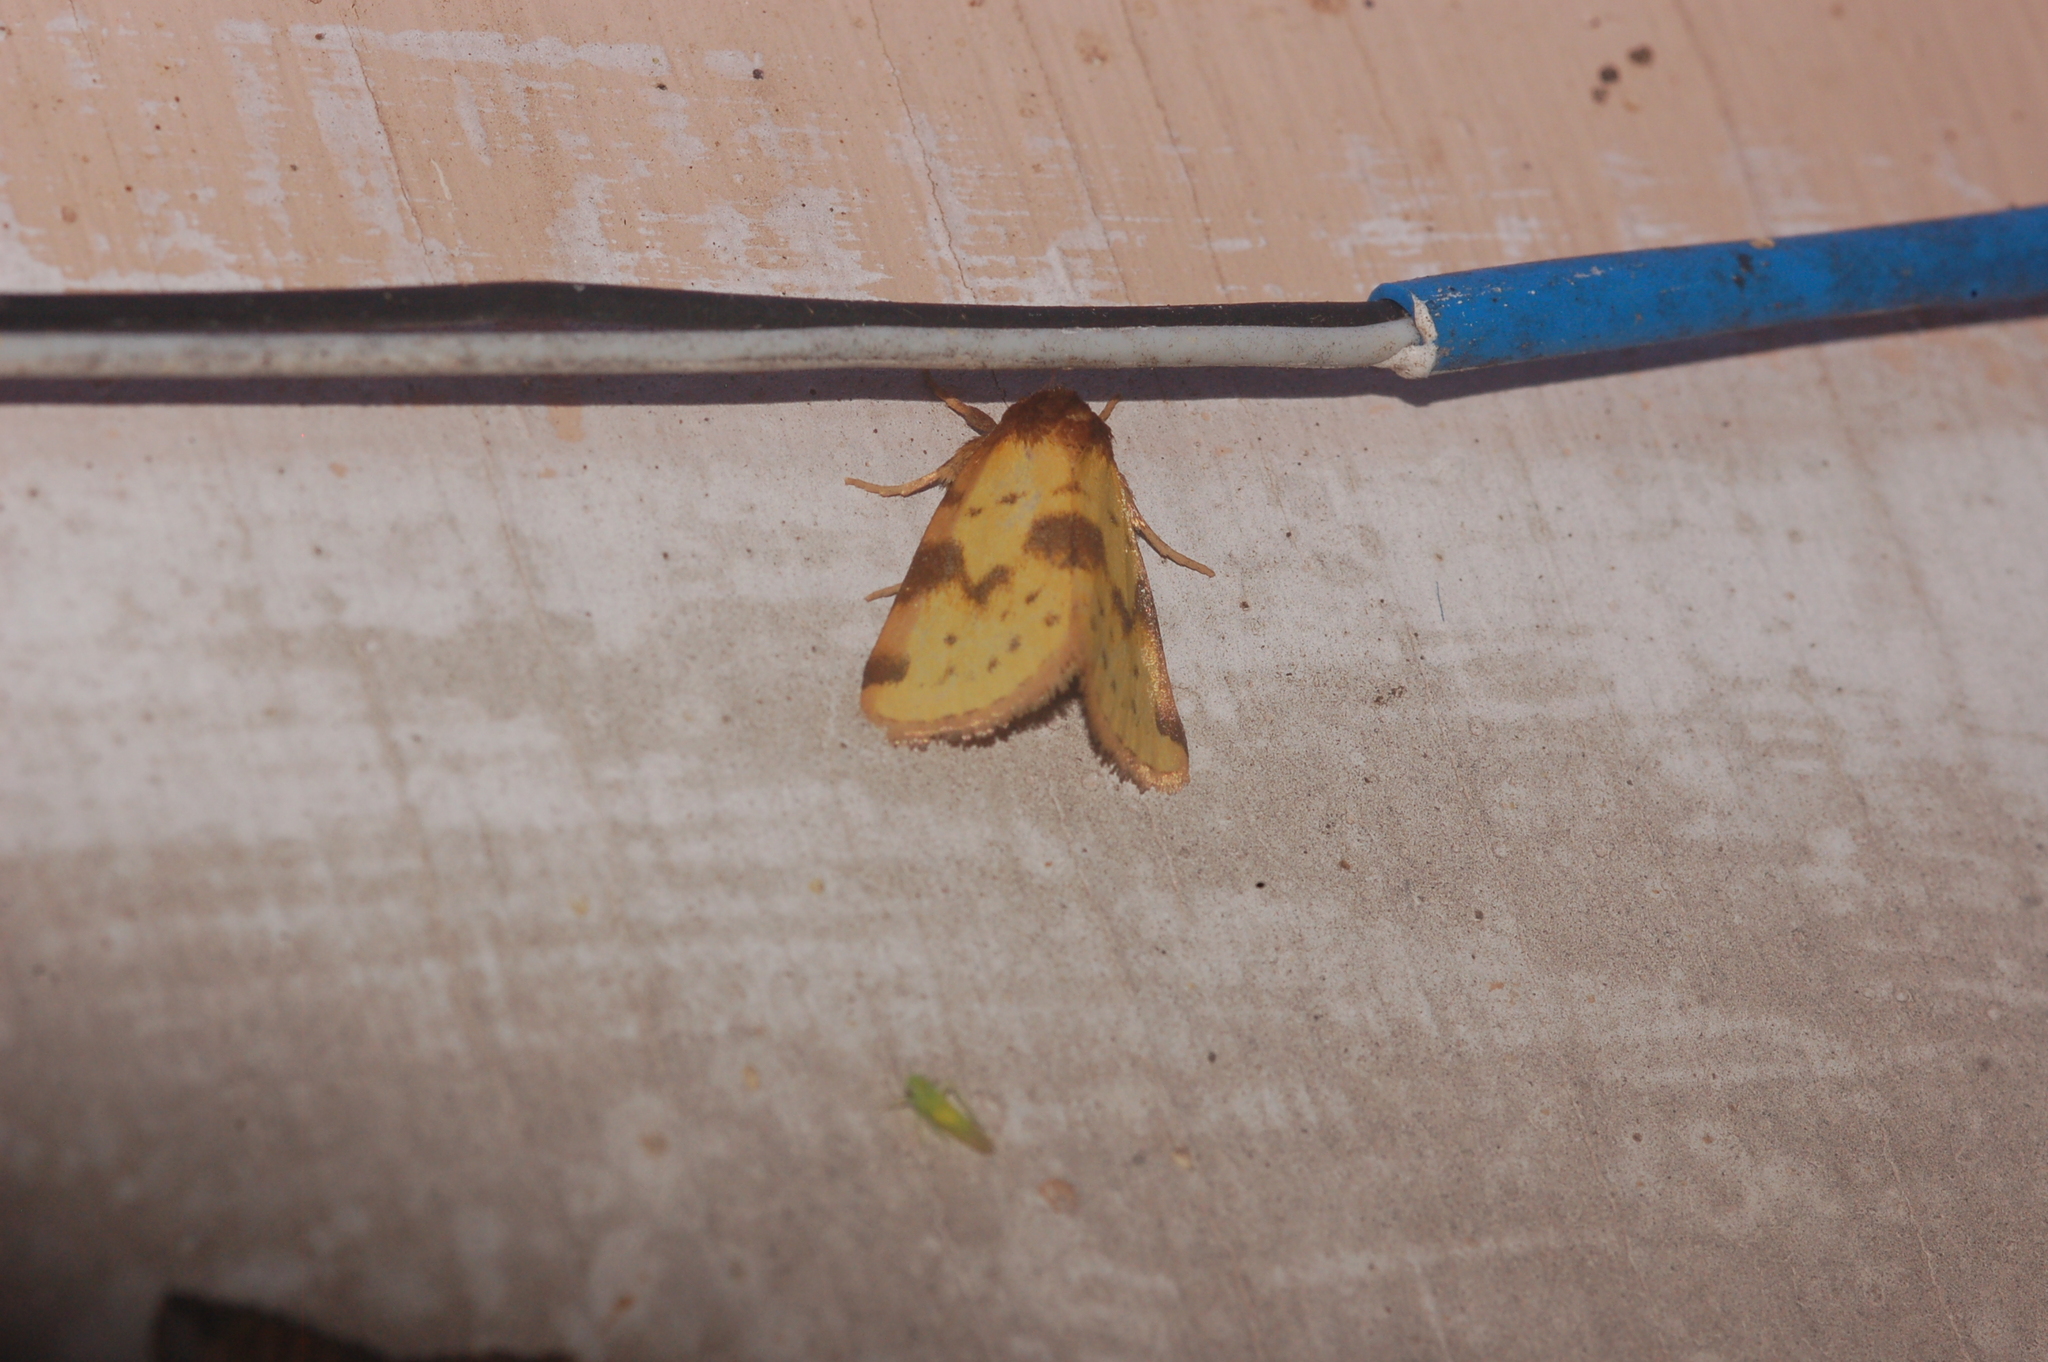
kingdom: Animalia
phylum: Arthropoda
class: Insecta
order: Lepidoptera
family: Noctuidae
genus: Azenia
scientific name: Azenia obtusa
